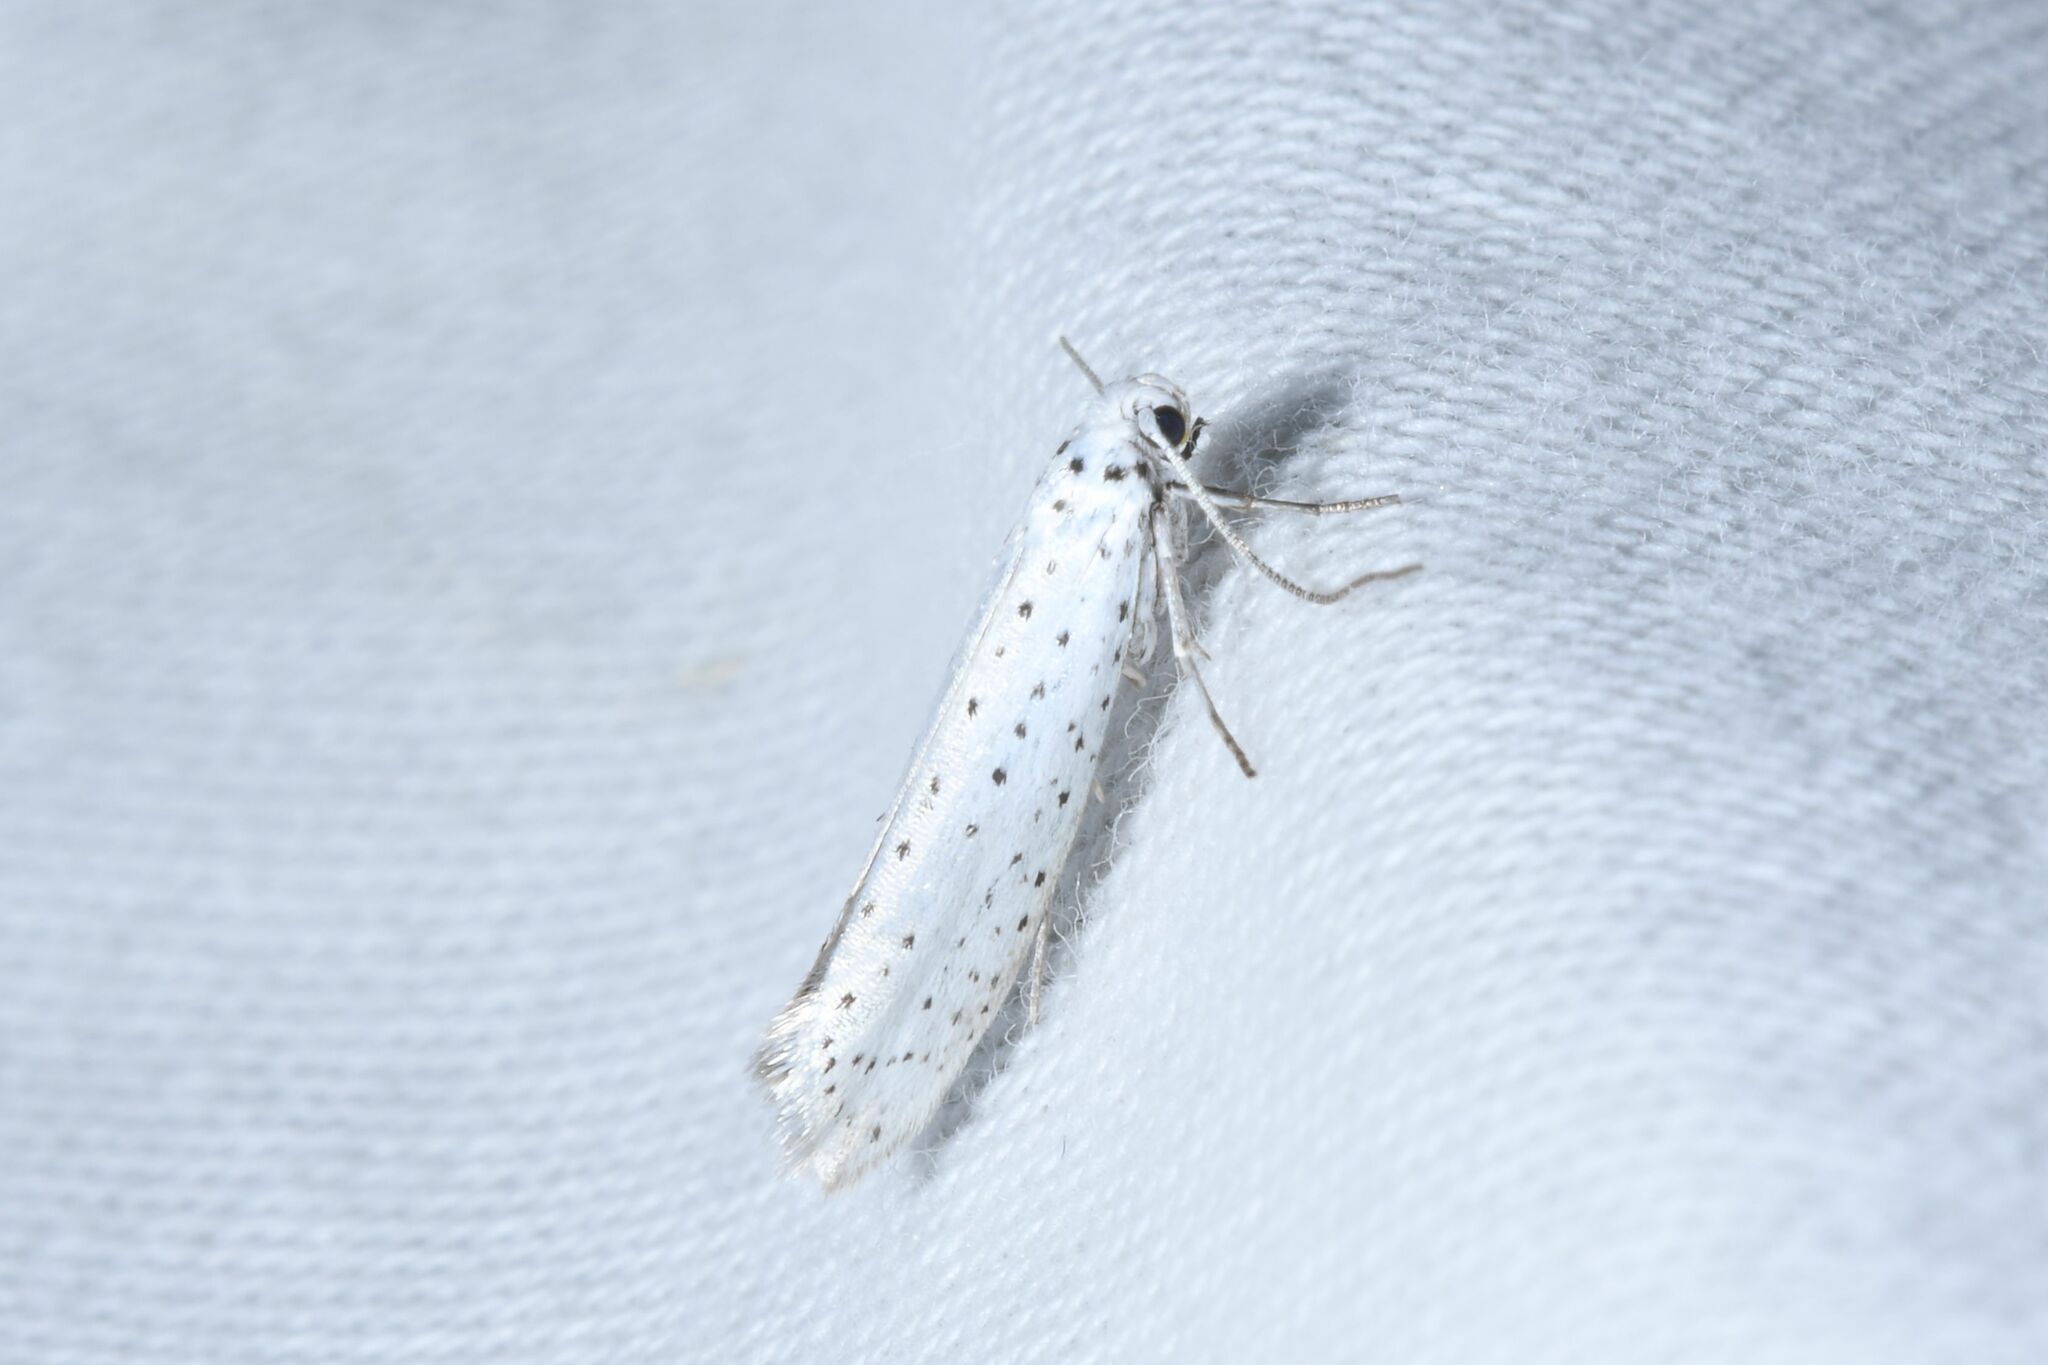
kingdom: Animalia
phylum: Arthropoda
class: Insecta
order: Lepidoptera
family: Yponomeutidae
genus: Yponomeuta
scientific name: Yponomeuta evonymella
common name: Bird-cherry ermine
